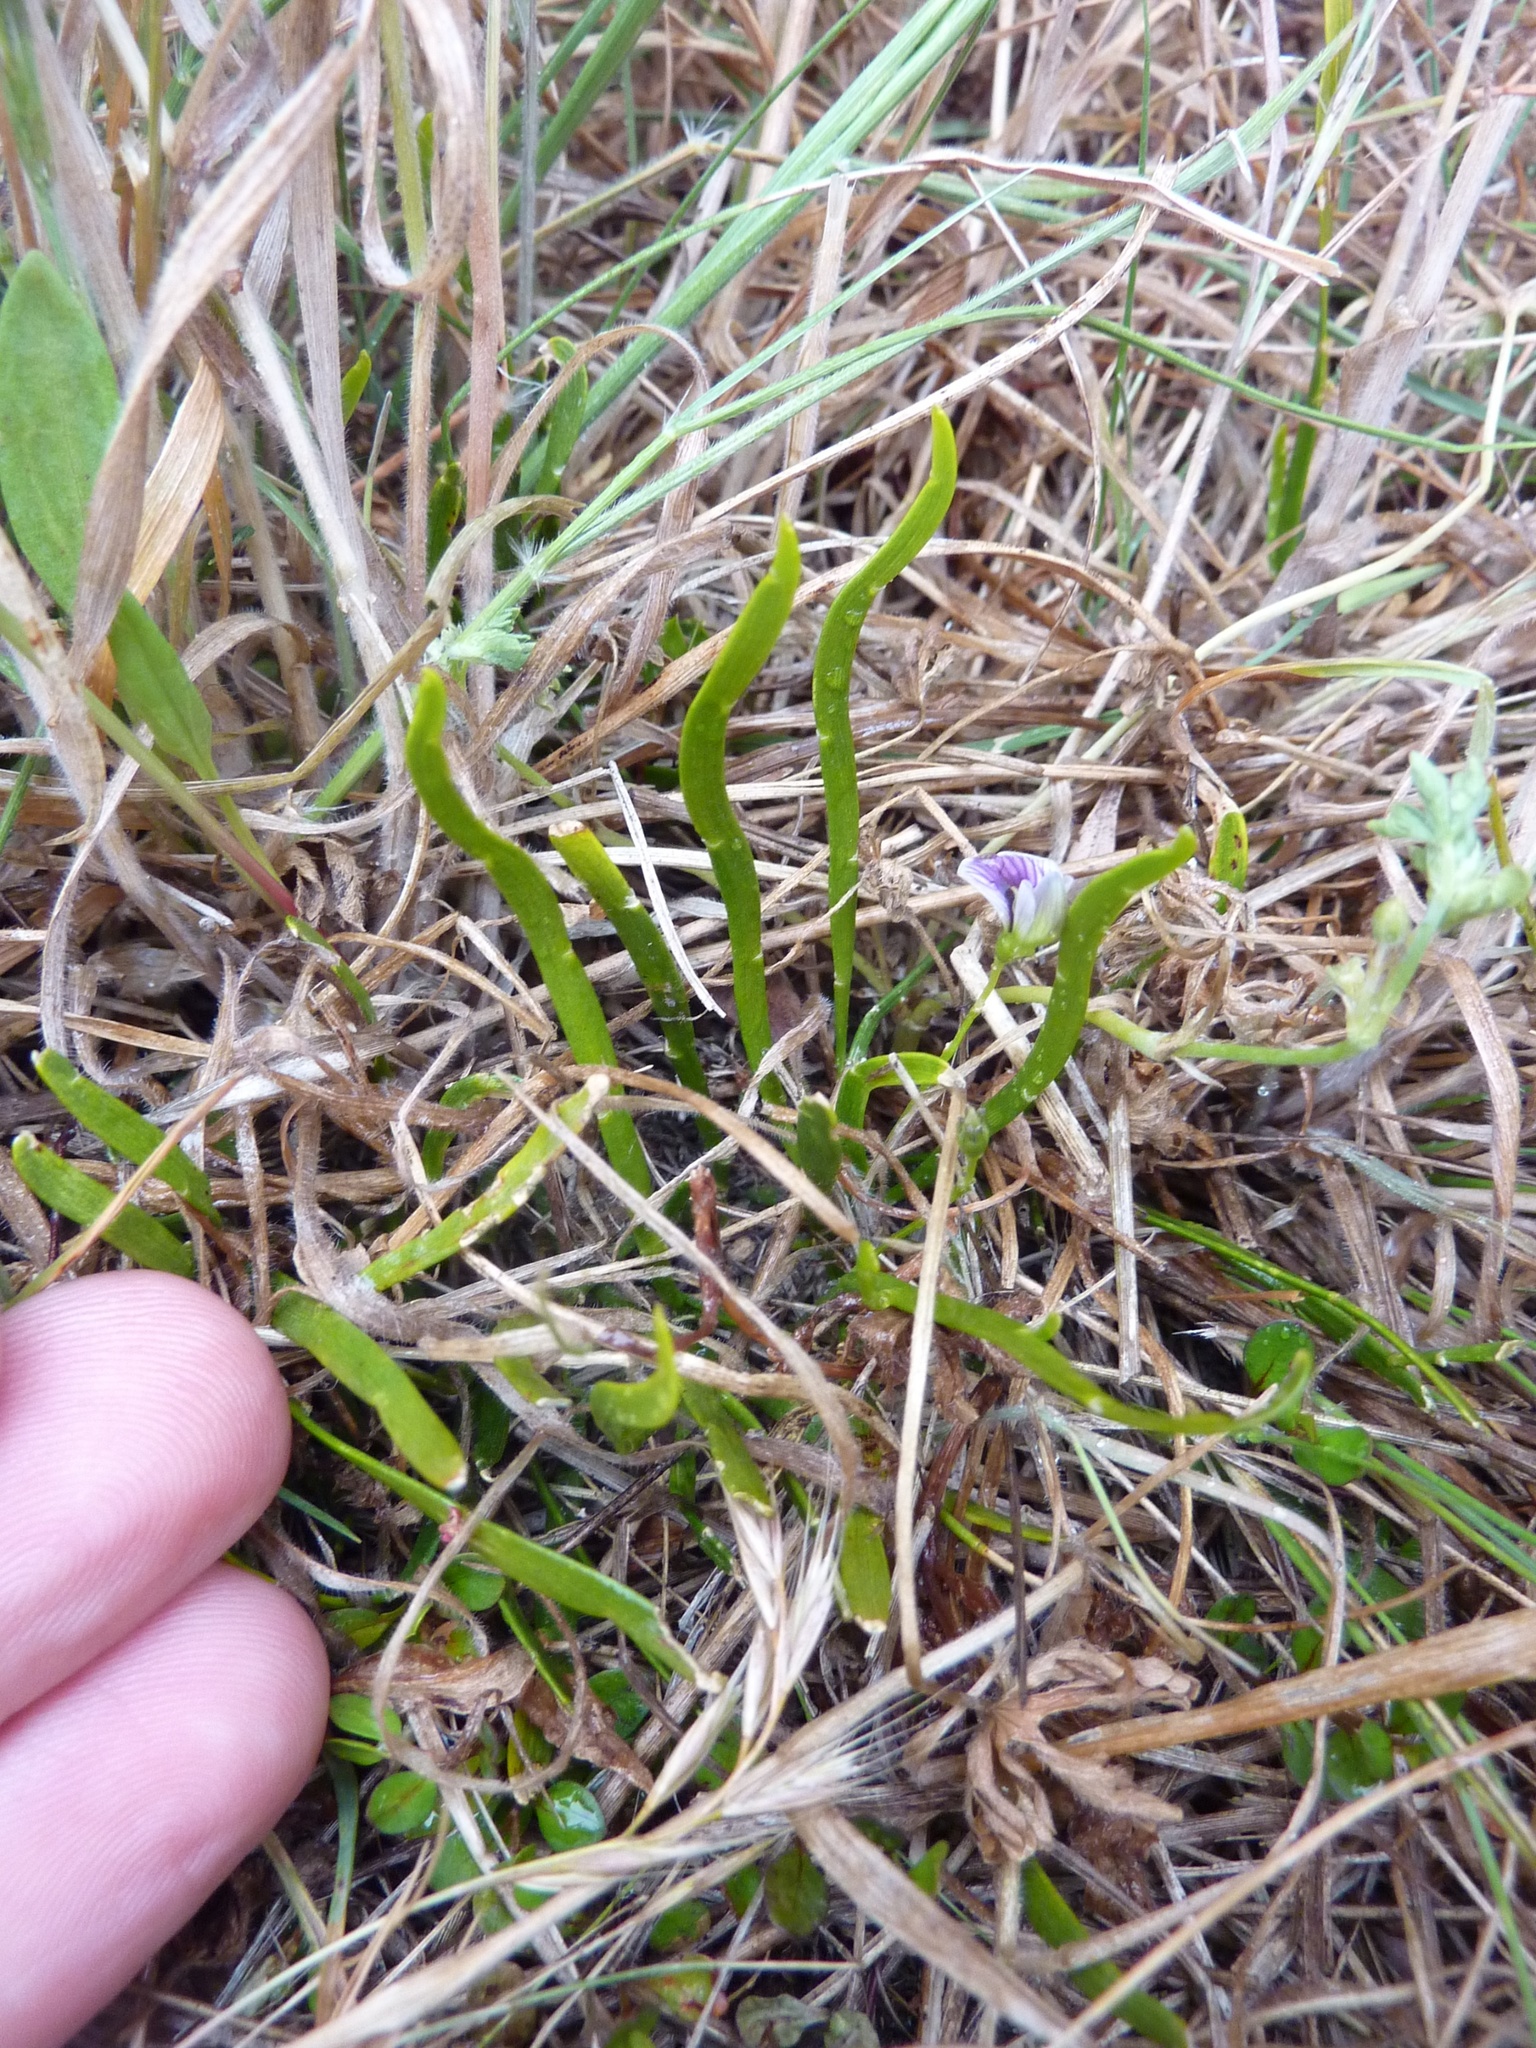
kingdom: Plantae
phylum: Tracheophyta
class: Magnoliopsida
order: Fabales
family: Fabaceae
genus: Carmichaelia
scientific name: Carmichaelia corrugata
